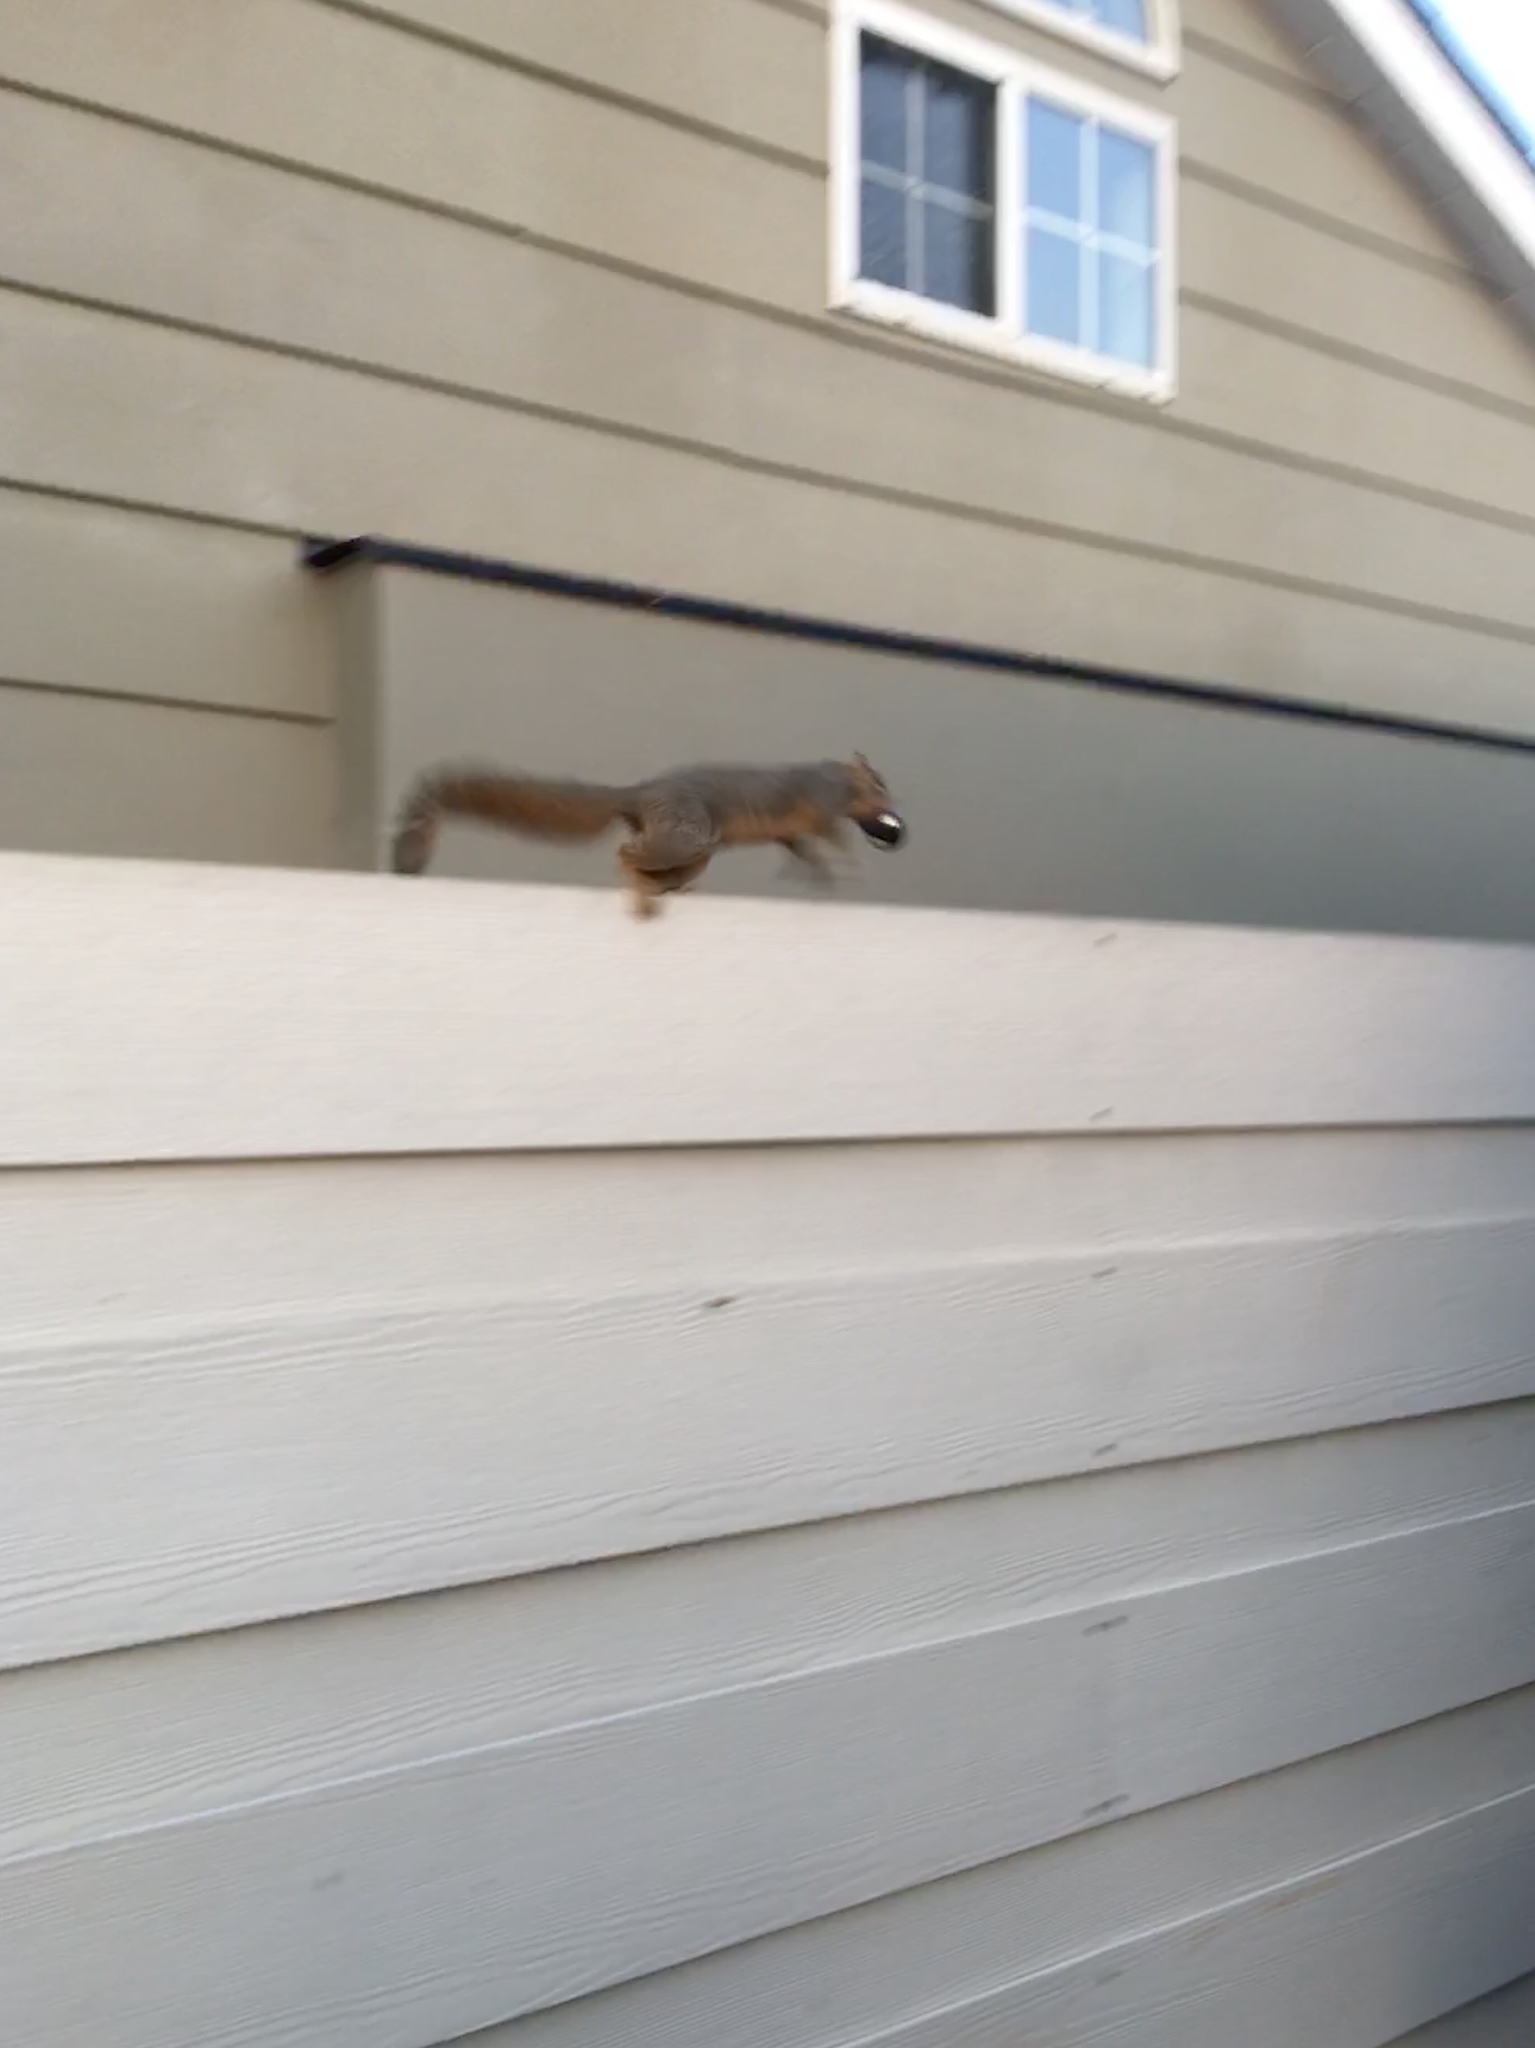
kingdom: Animalia
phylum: Chordata
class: Mammalia
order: Rodentia
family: Sciuridae
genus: Sciurus
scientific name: Sciurus niger
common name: Fox squirrel
